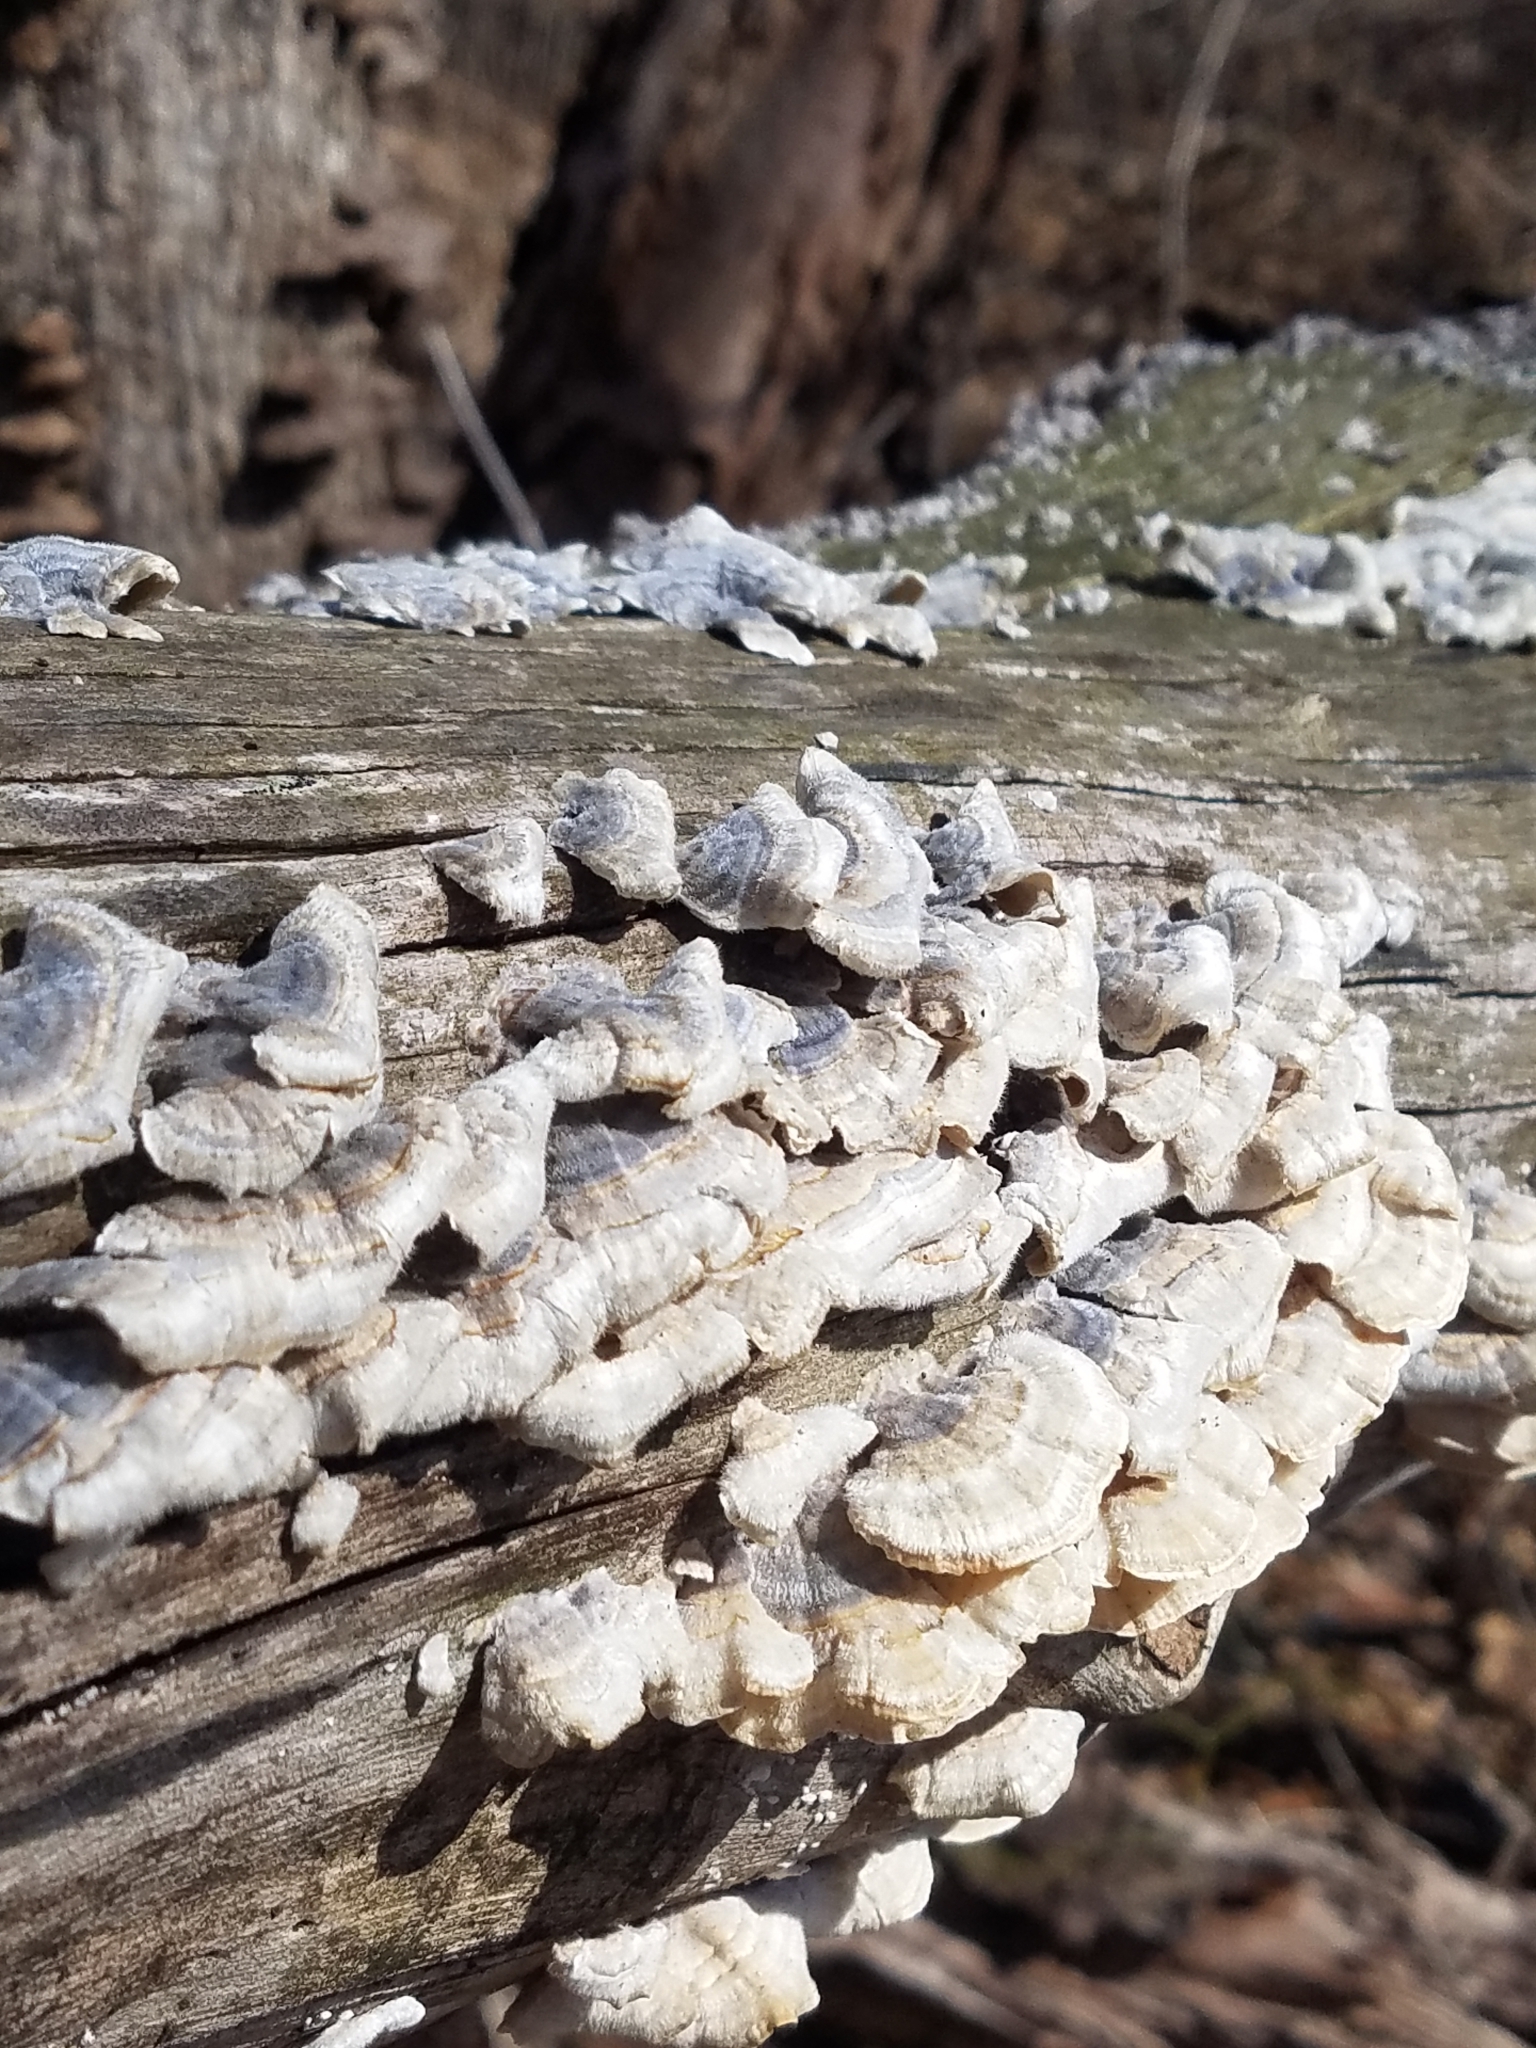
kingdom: Fungi
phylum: Basidiomycota
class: Agaricomycetes
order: Polyporales
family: Polyporaceae
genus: Trametes
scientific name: Trametes versicolor
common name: Turkeytail
